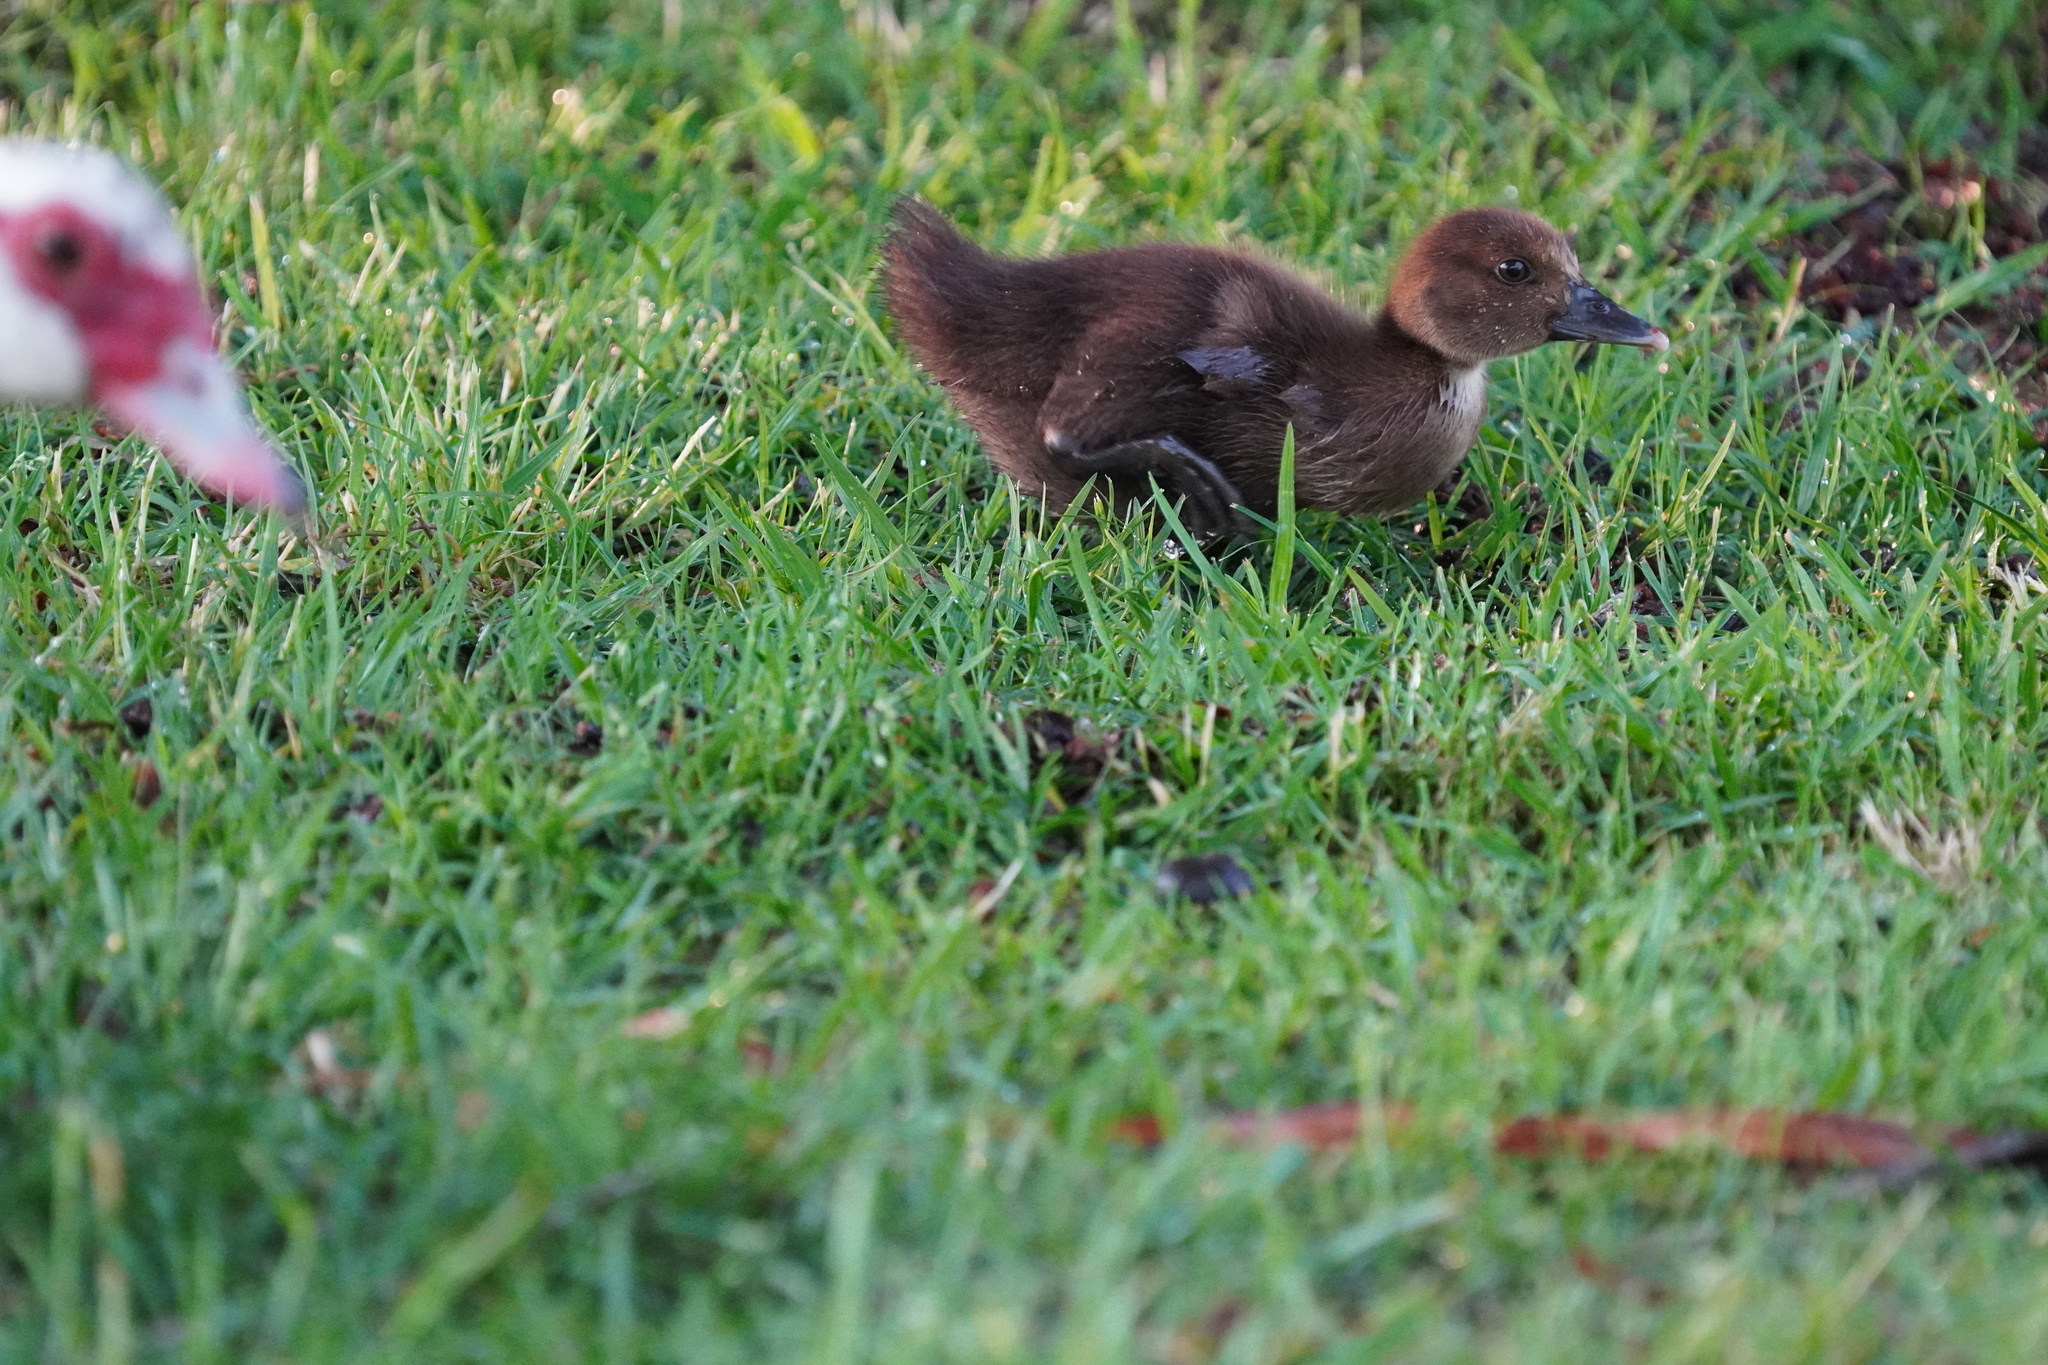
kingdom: Animalia
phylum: Chordata
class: Aves
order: Anseriformes
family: Anatidae
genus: Cairina
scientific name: Cairina moschata
